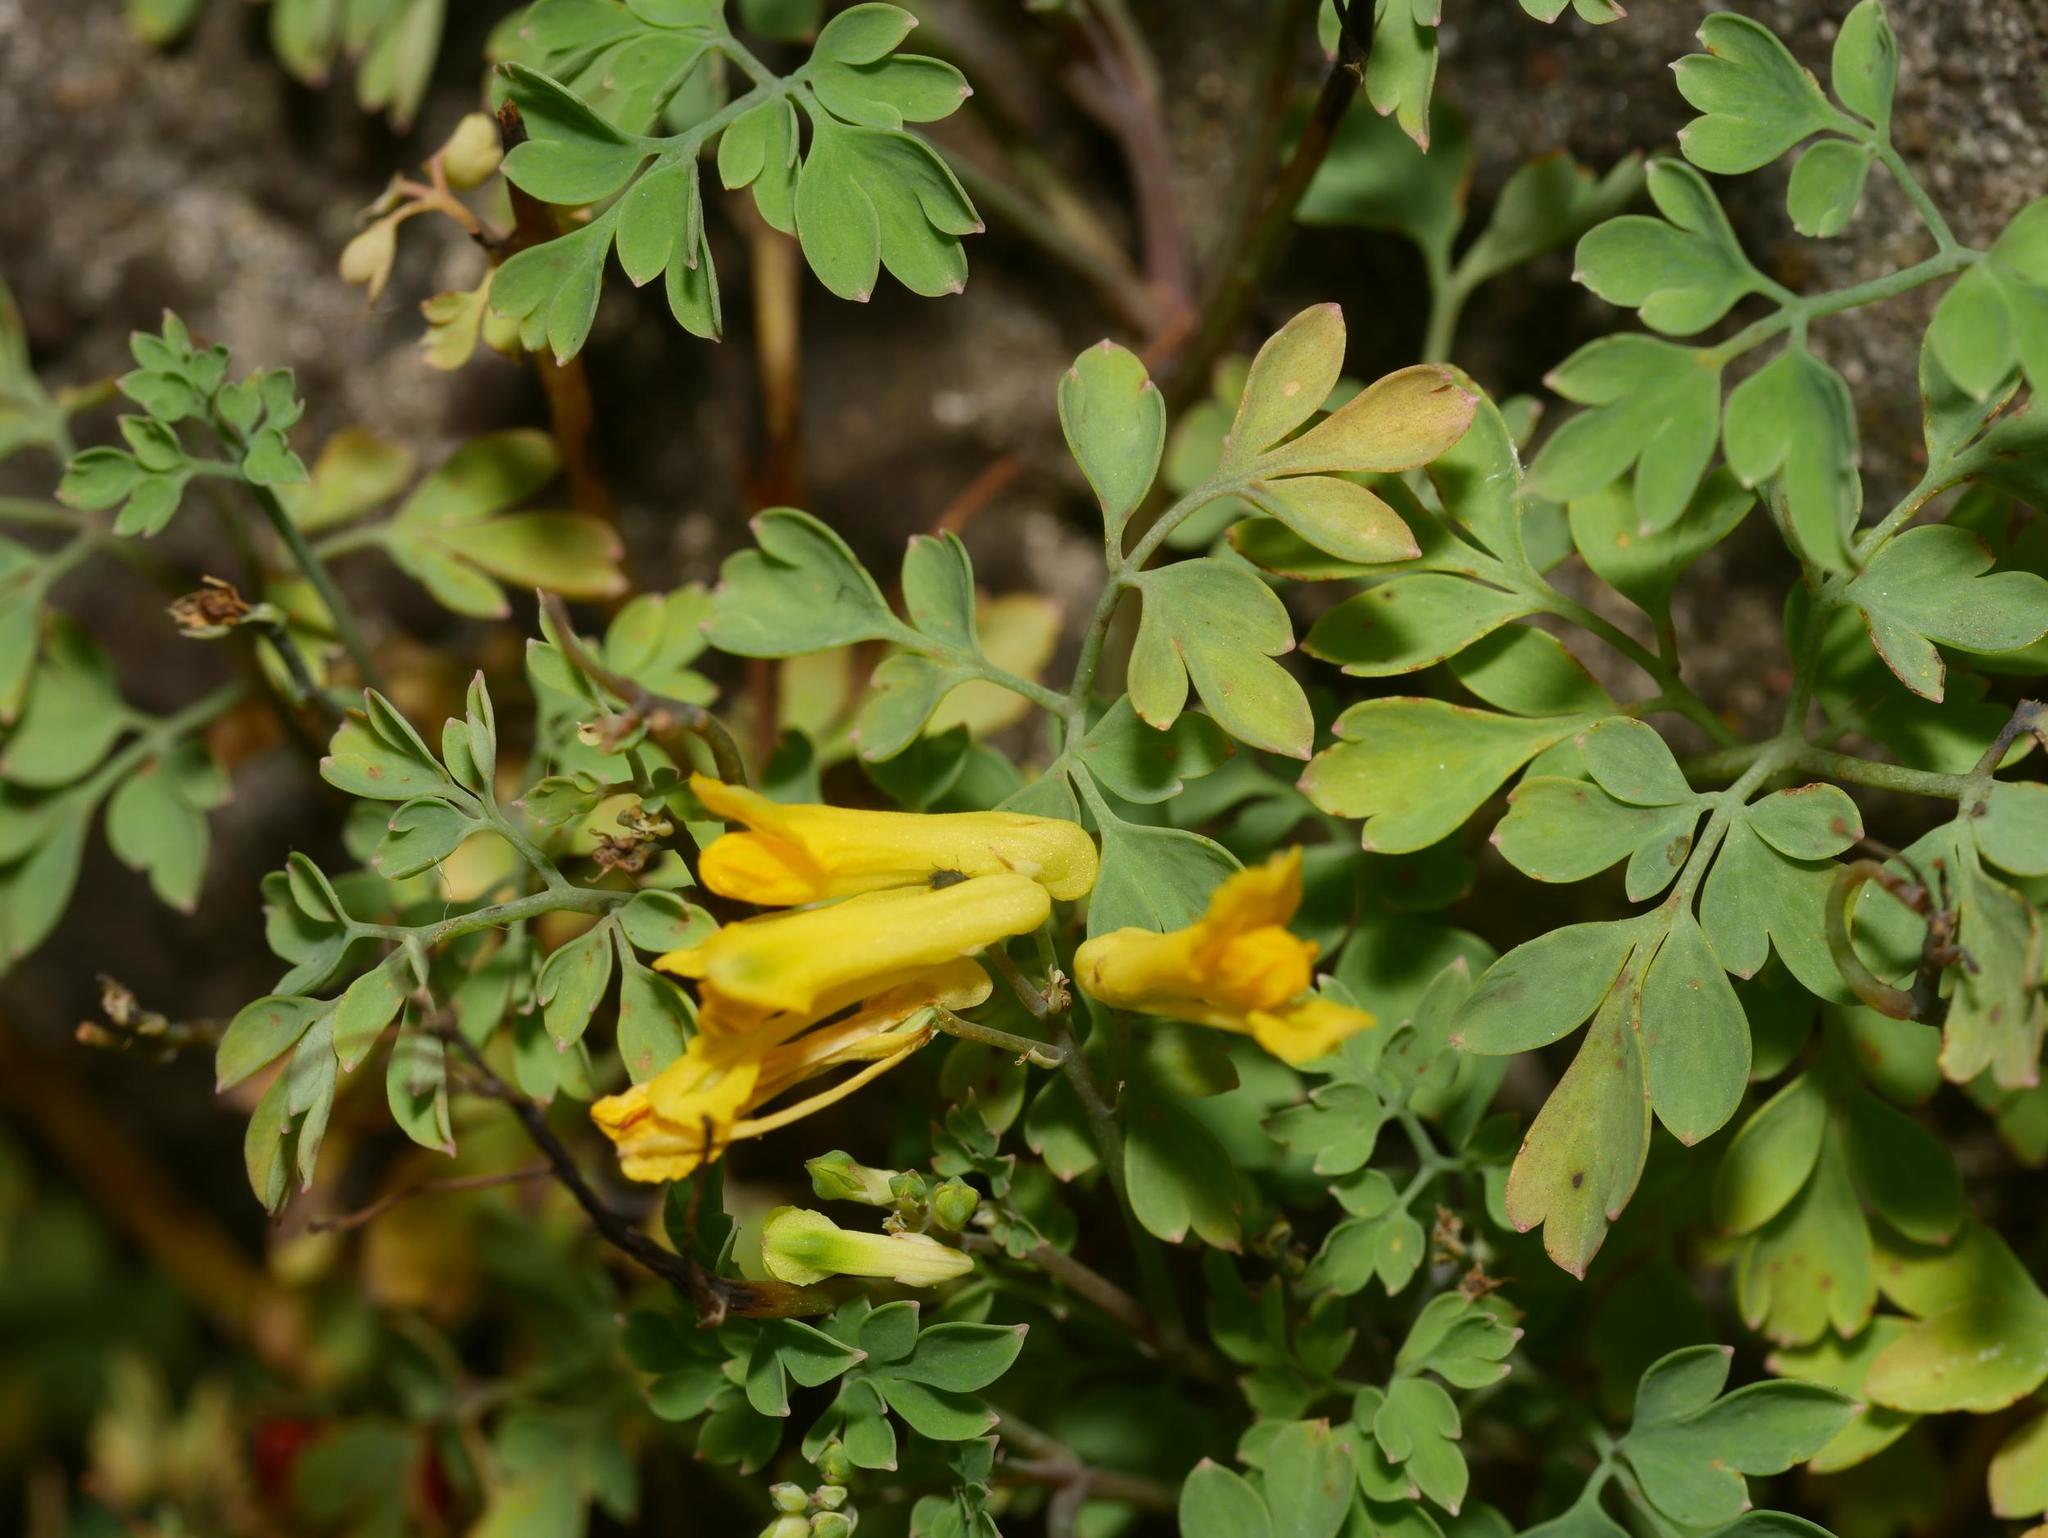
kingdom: Plantae
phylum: Tracheophyta
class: Magnoliopsida
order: Ranunculales
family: Papaveraceae
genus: Pseudofumaria
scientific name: Pseudofumaria lutea
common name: Yellow corydalis
